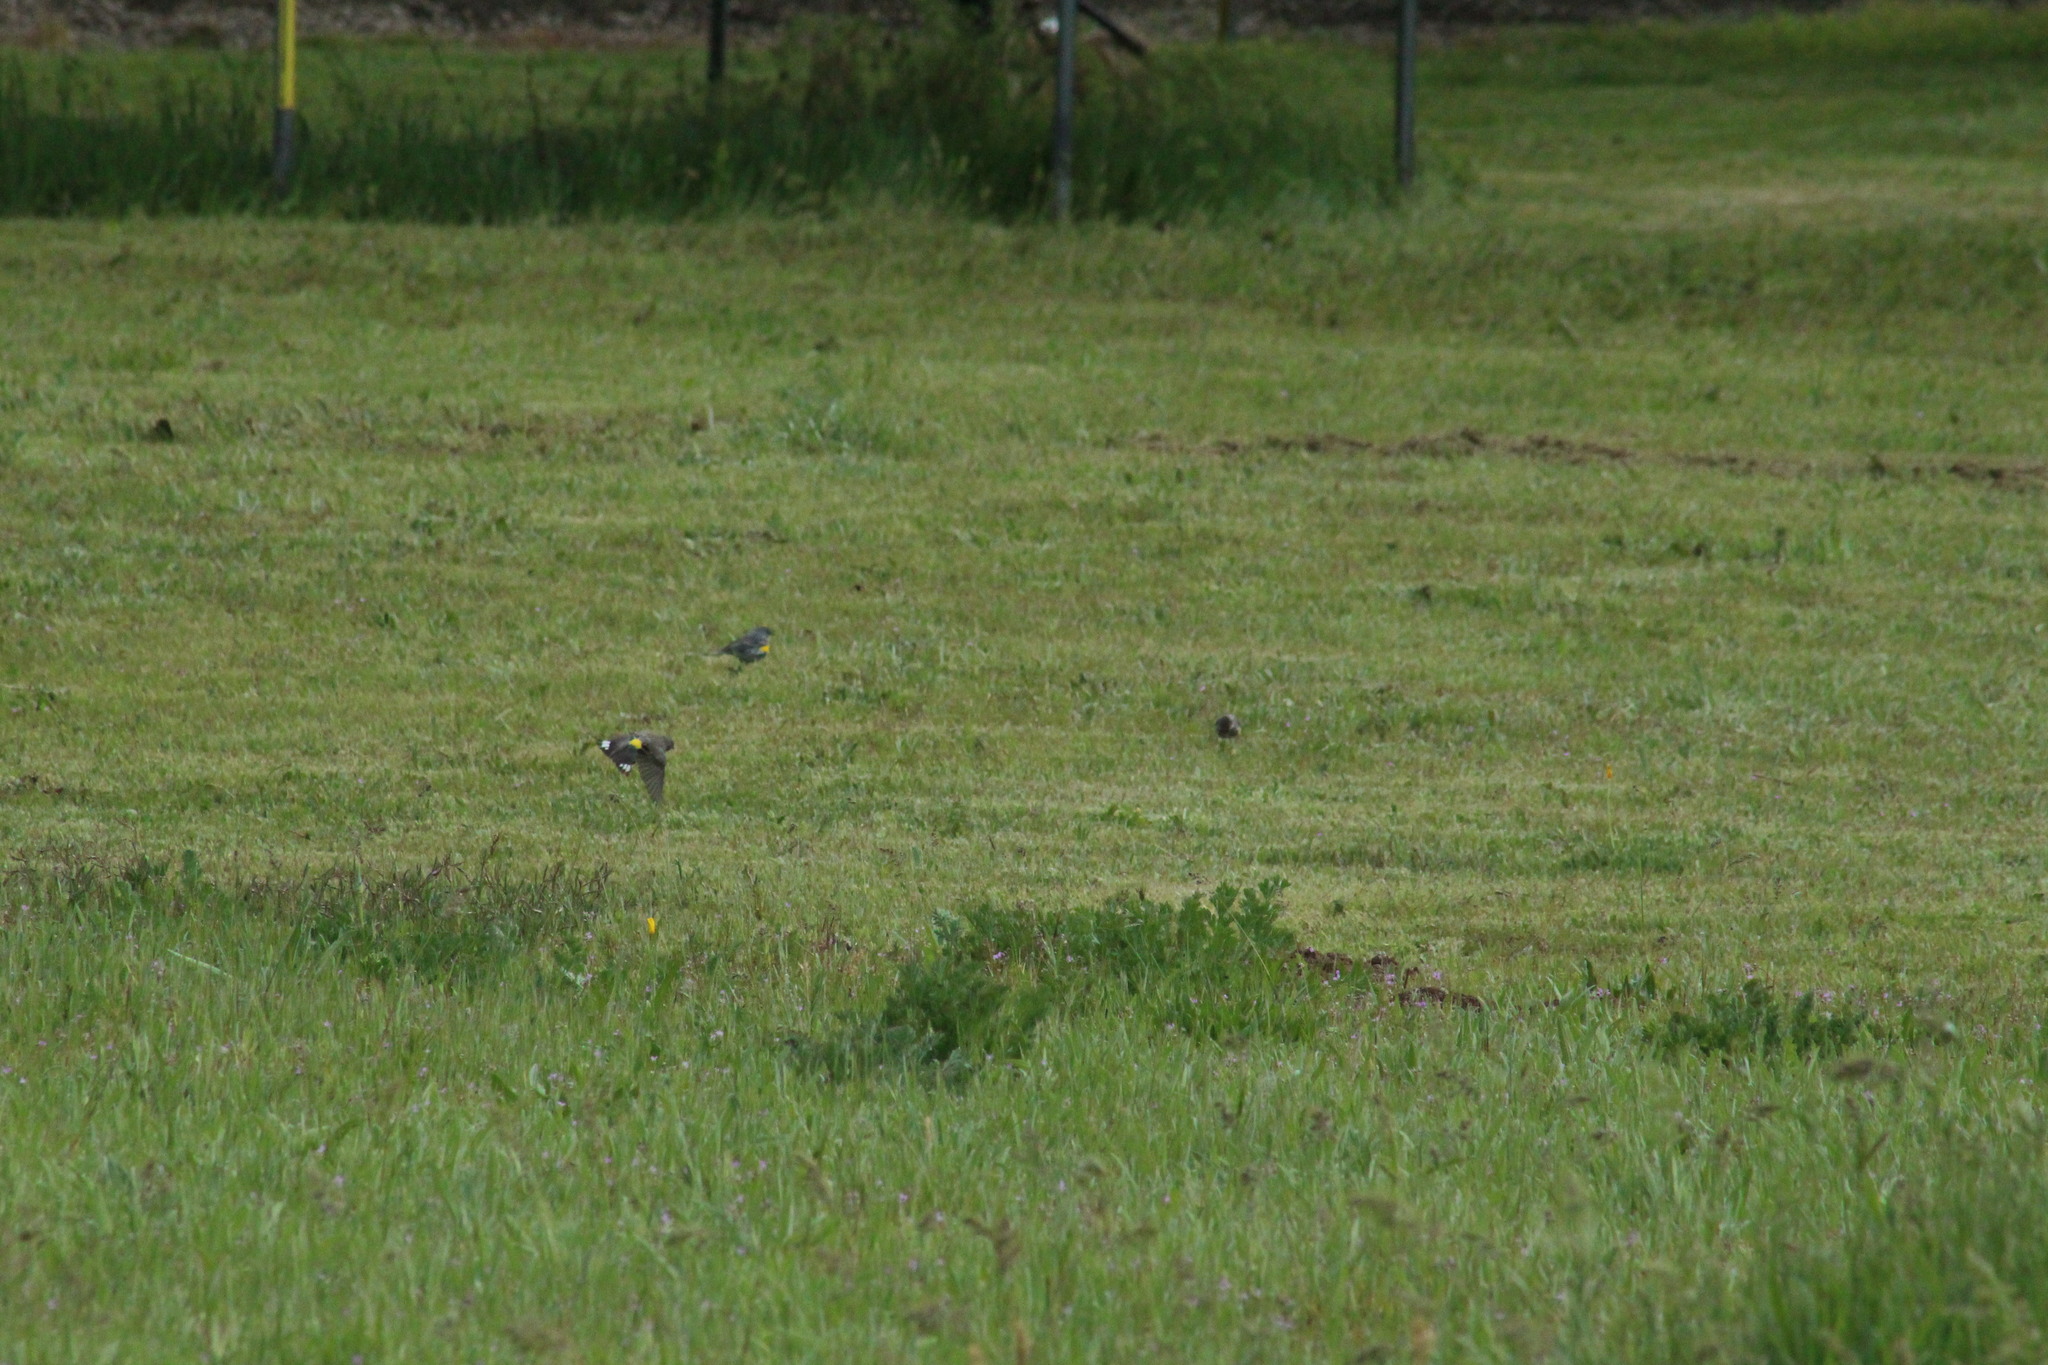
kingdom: Animalia
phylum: Chordata
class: Aves
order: Passeriformes
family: Parulidae
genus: Setophaga
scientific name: Setophaga coronata
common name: Myrtle warbler
